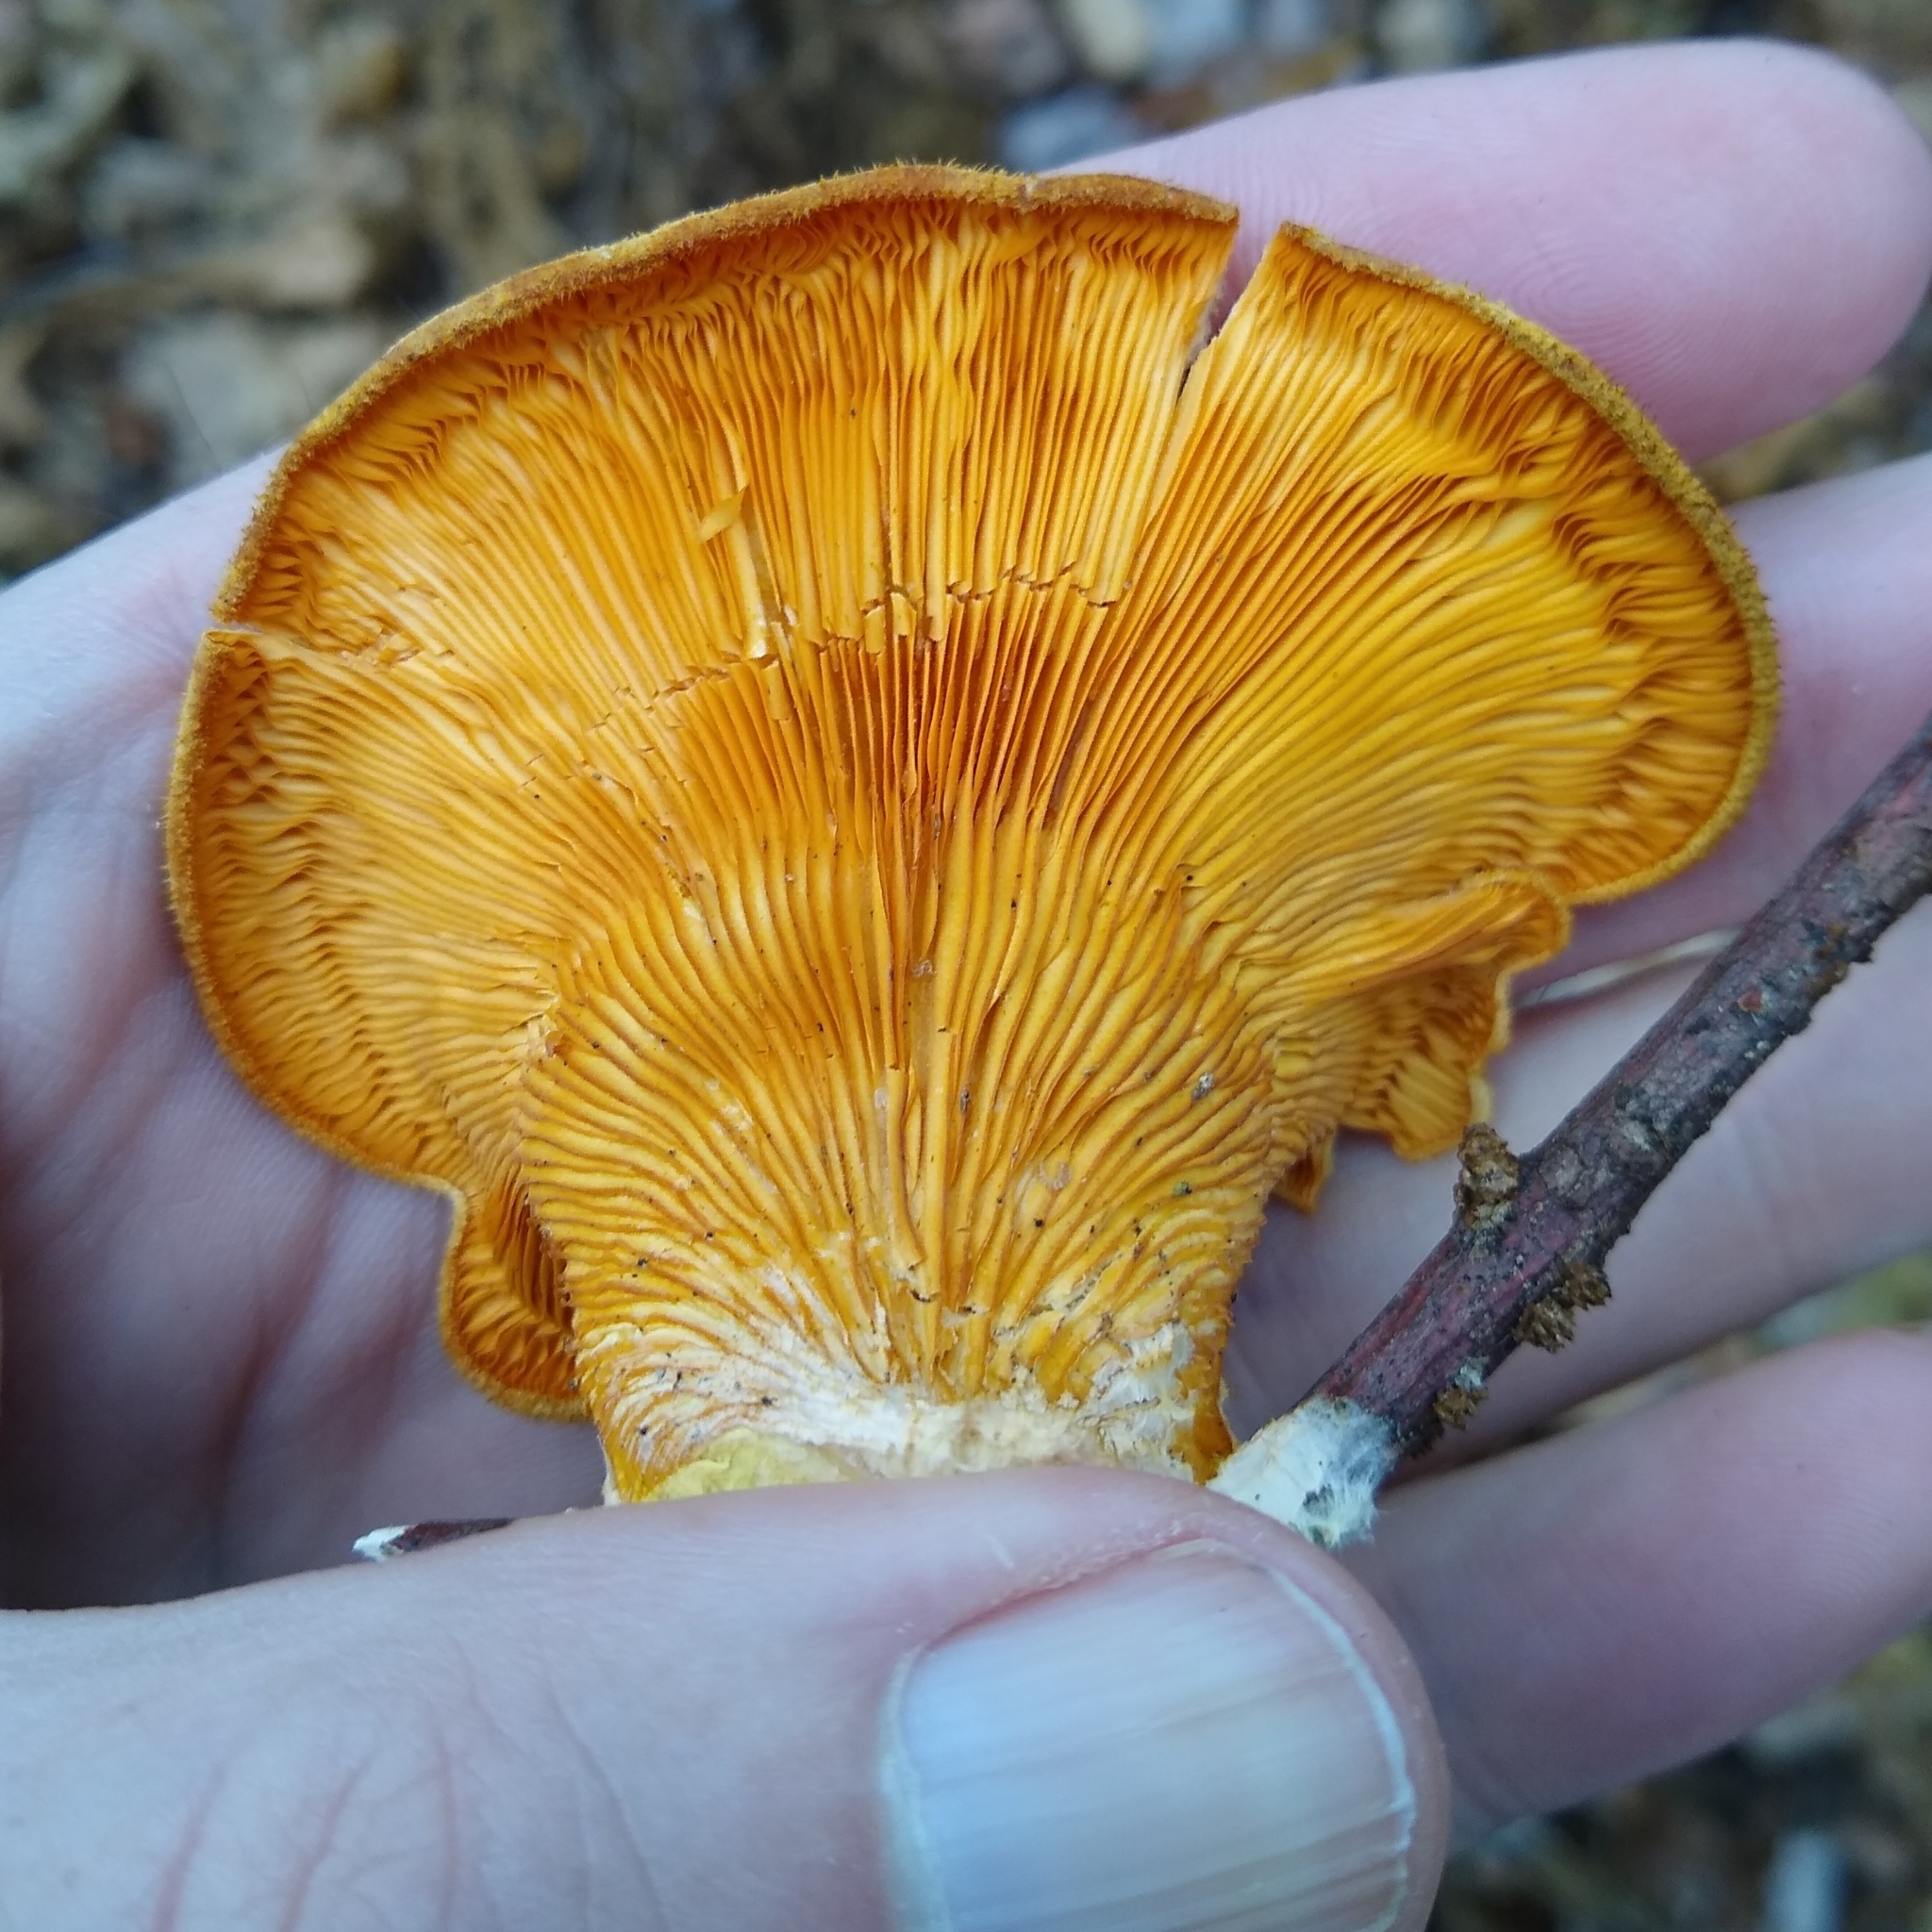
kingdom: Fungi
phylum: Basidiomycota
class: Agaricomycetes
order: Agaricales
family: Phyllotopsidaceae
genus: Phyllotopsis
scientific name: Phyllotopsis nidulans
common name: Orange mock oyster
